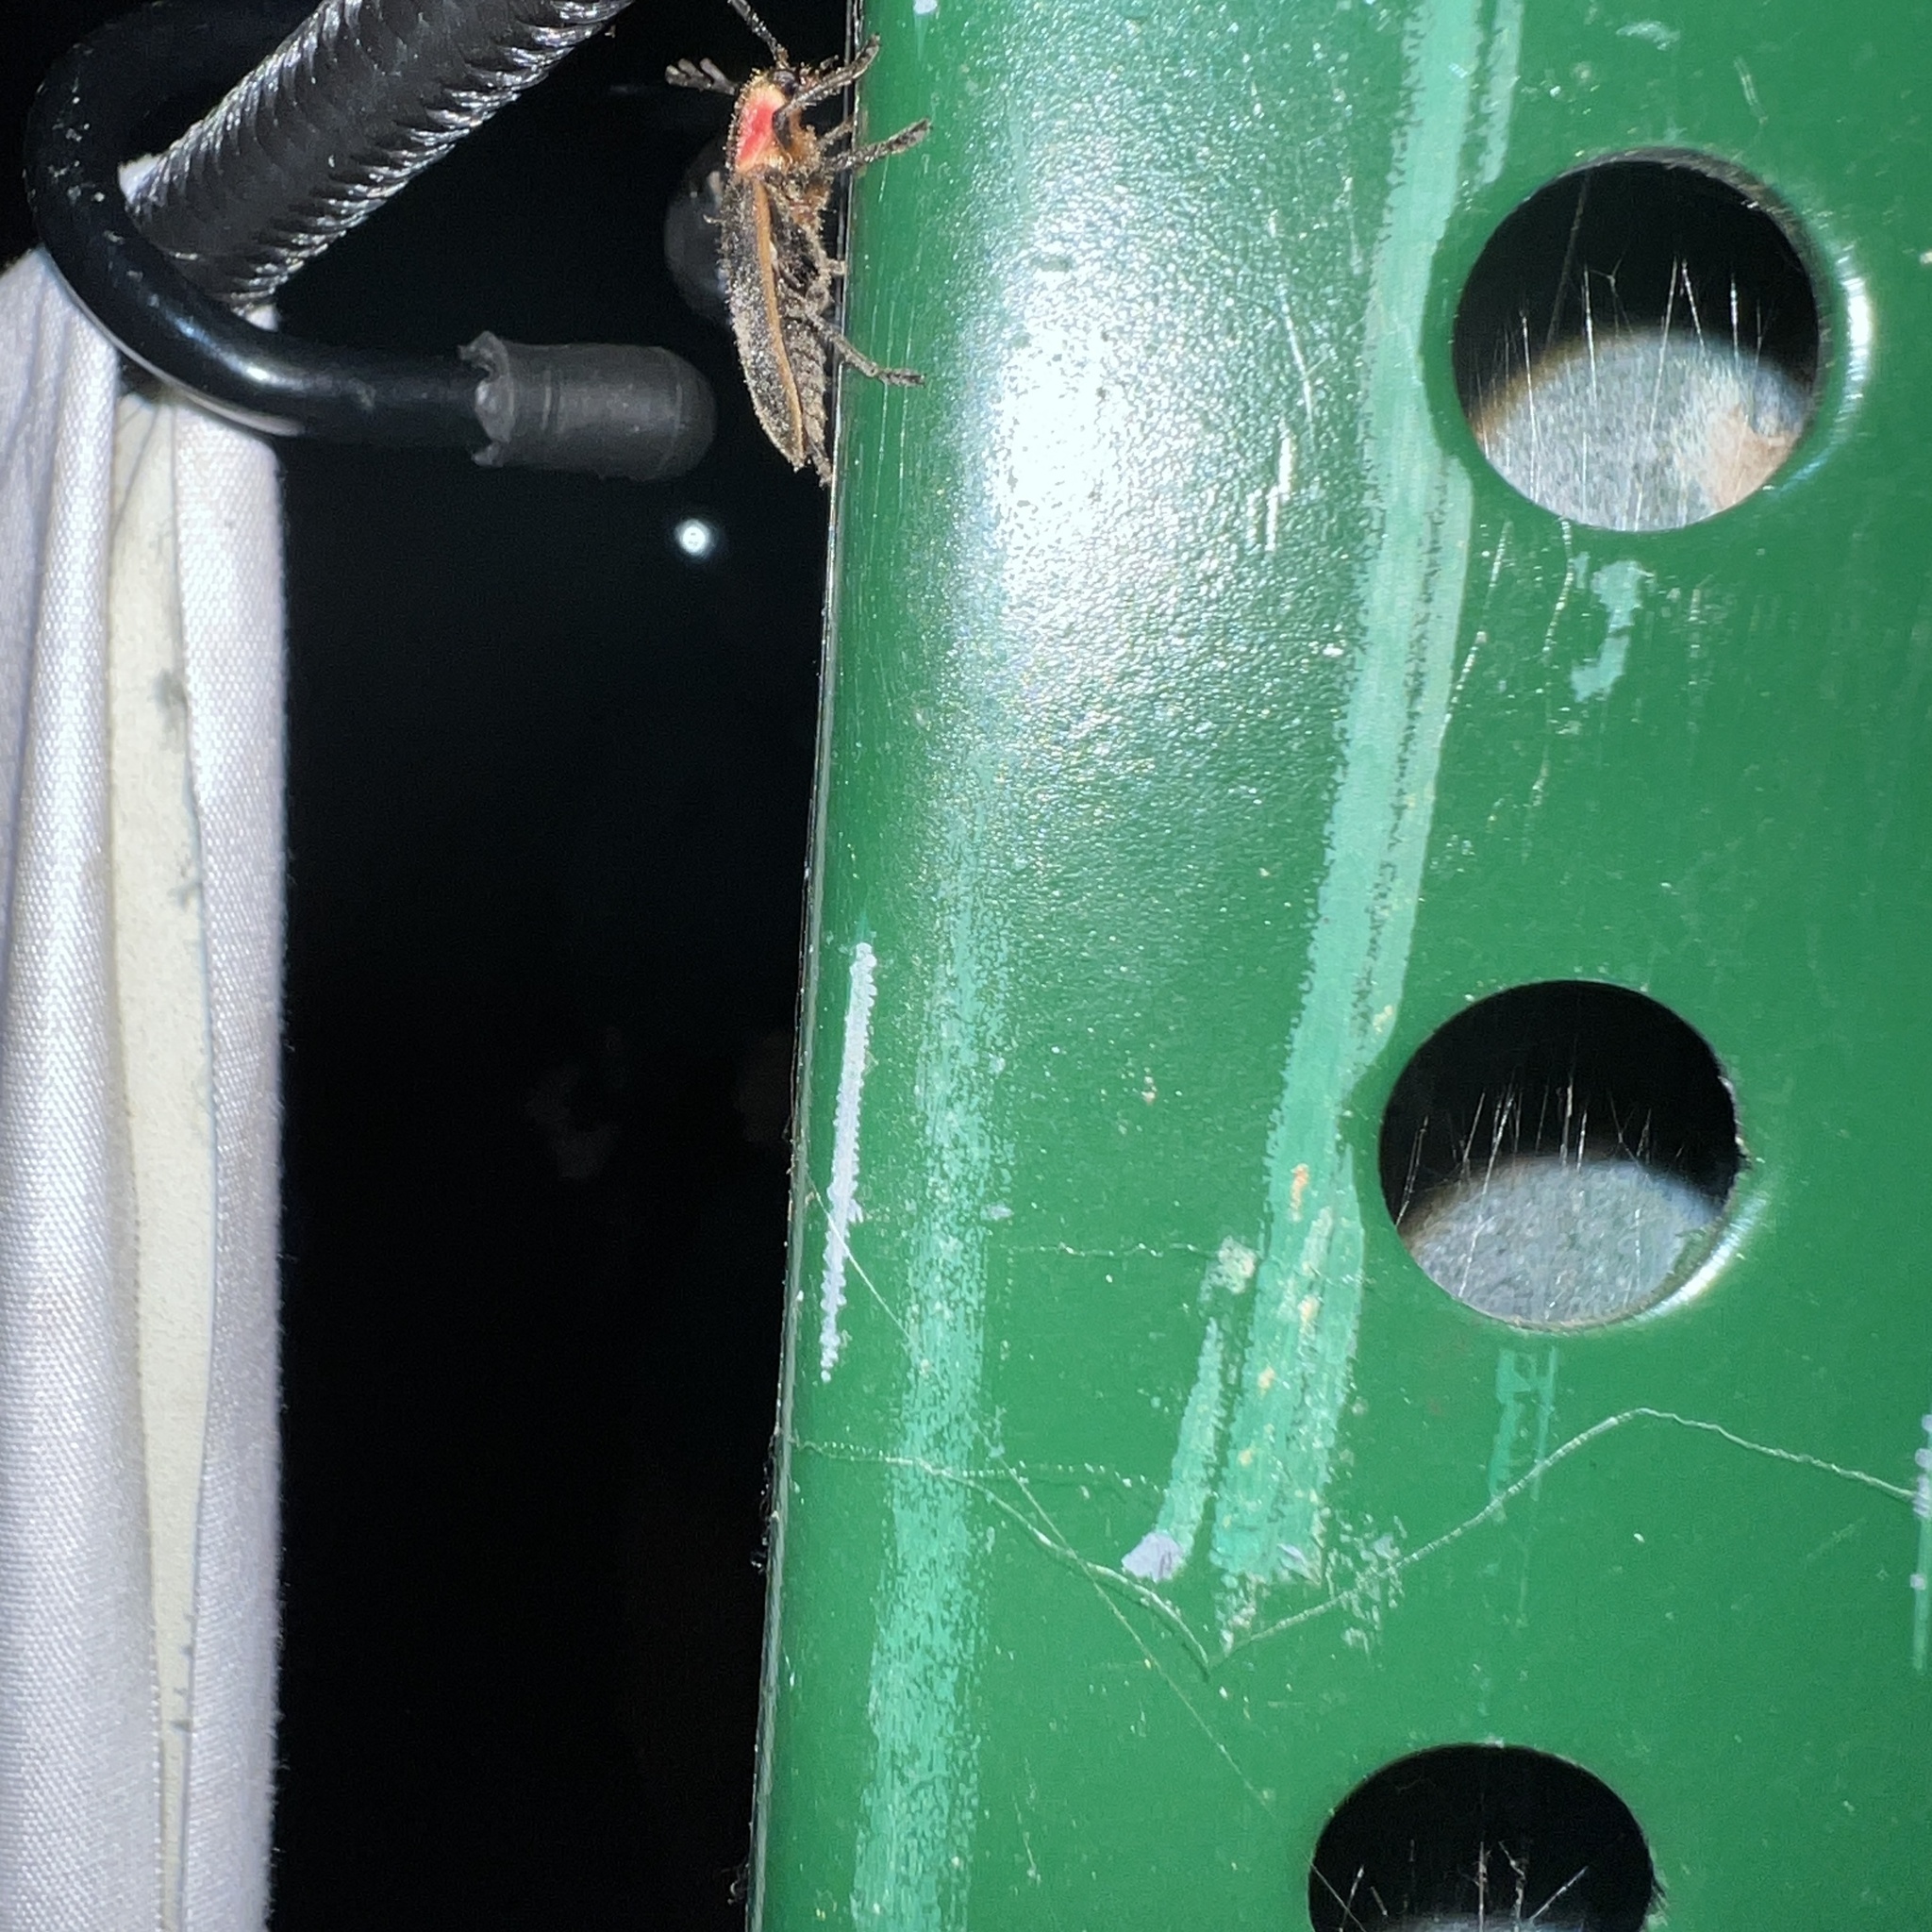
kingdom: Animalia
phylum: Arthropoda
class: Insecta
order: Coleoptera
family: Cleridae
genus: Chariessa
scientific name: Chariessa pilosa
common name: Pilose checkered beetle
